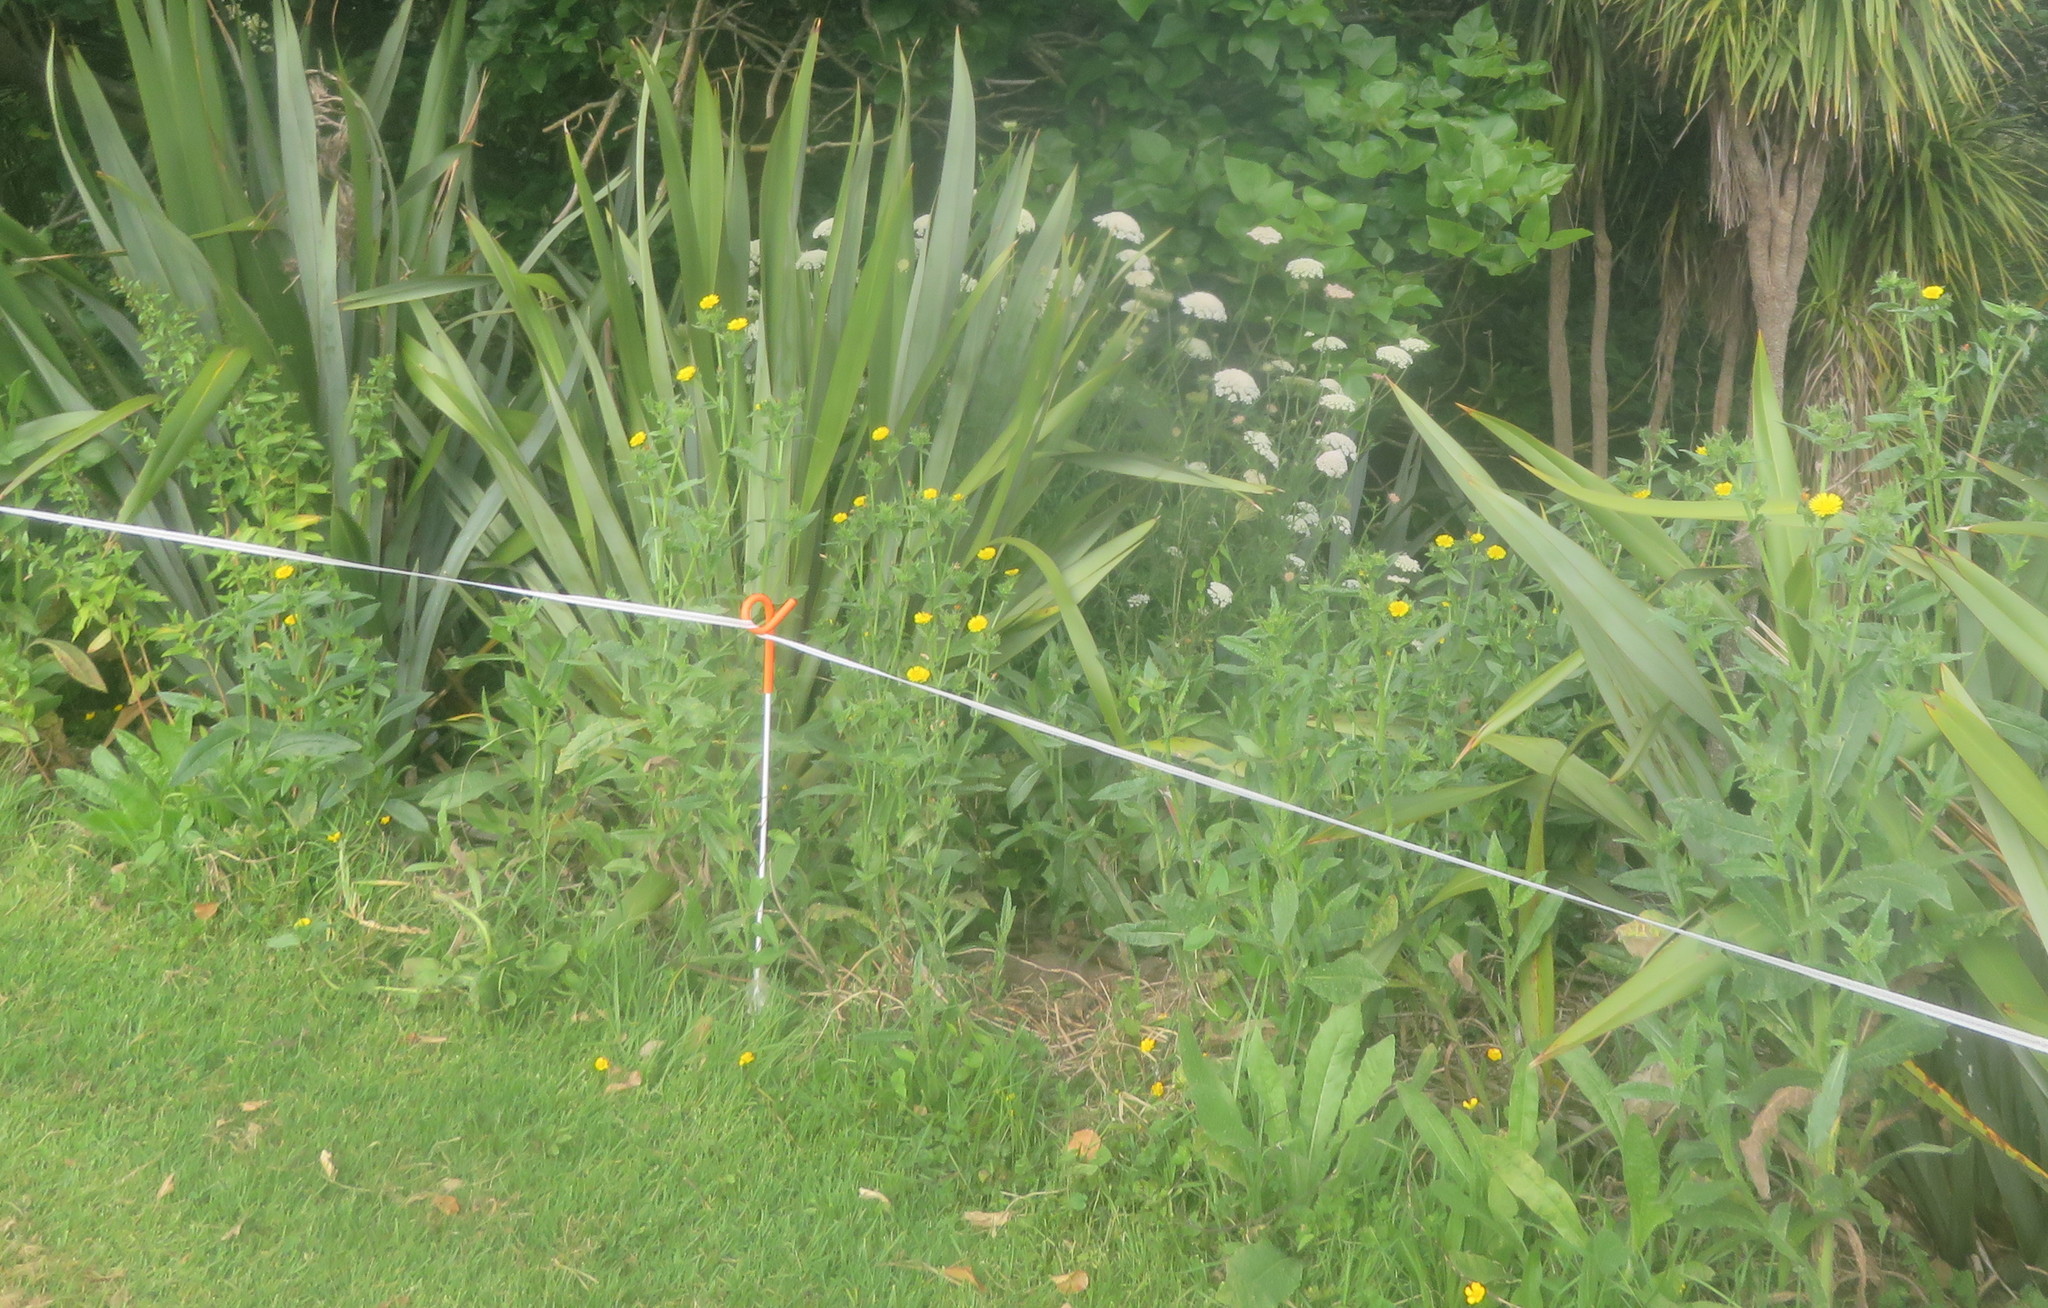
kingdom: Plantae
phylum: Tracheophyta
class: Magnoliopsida
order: Asterales
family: Asteraceae
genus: Helminthotheca
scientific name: Helminthotheca echioides
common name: Ox-tongue
